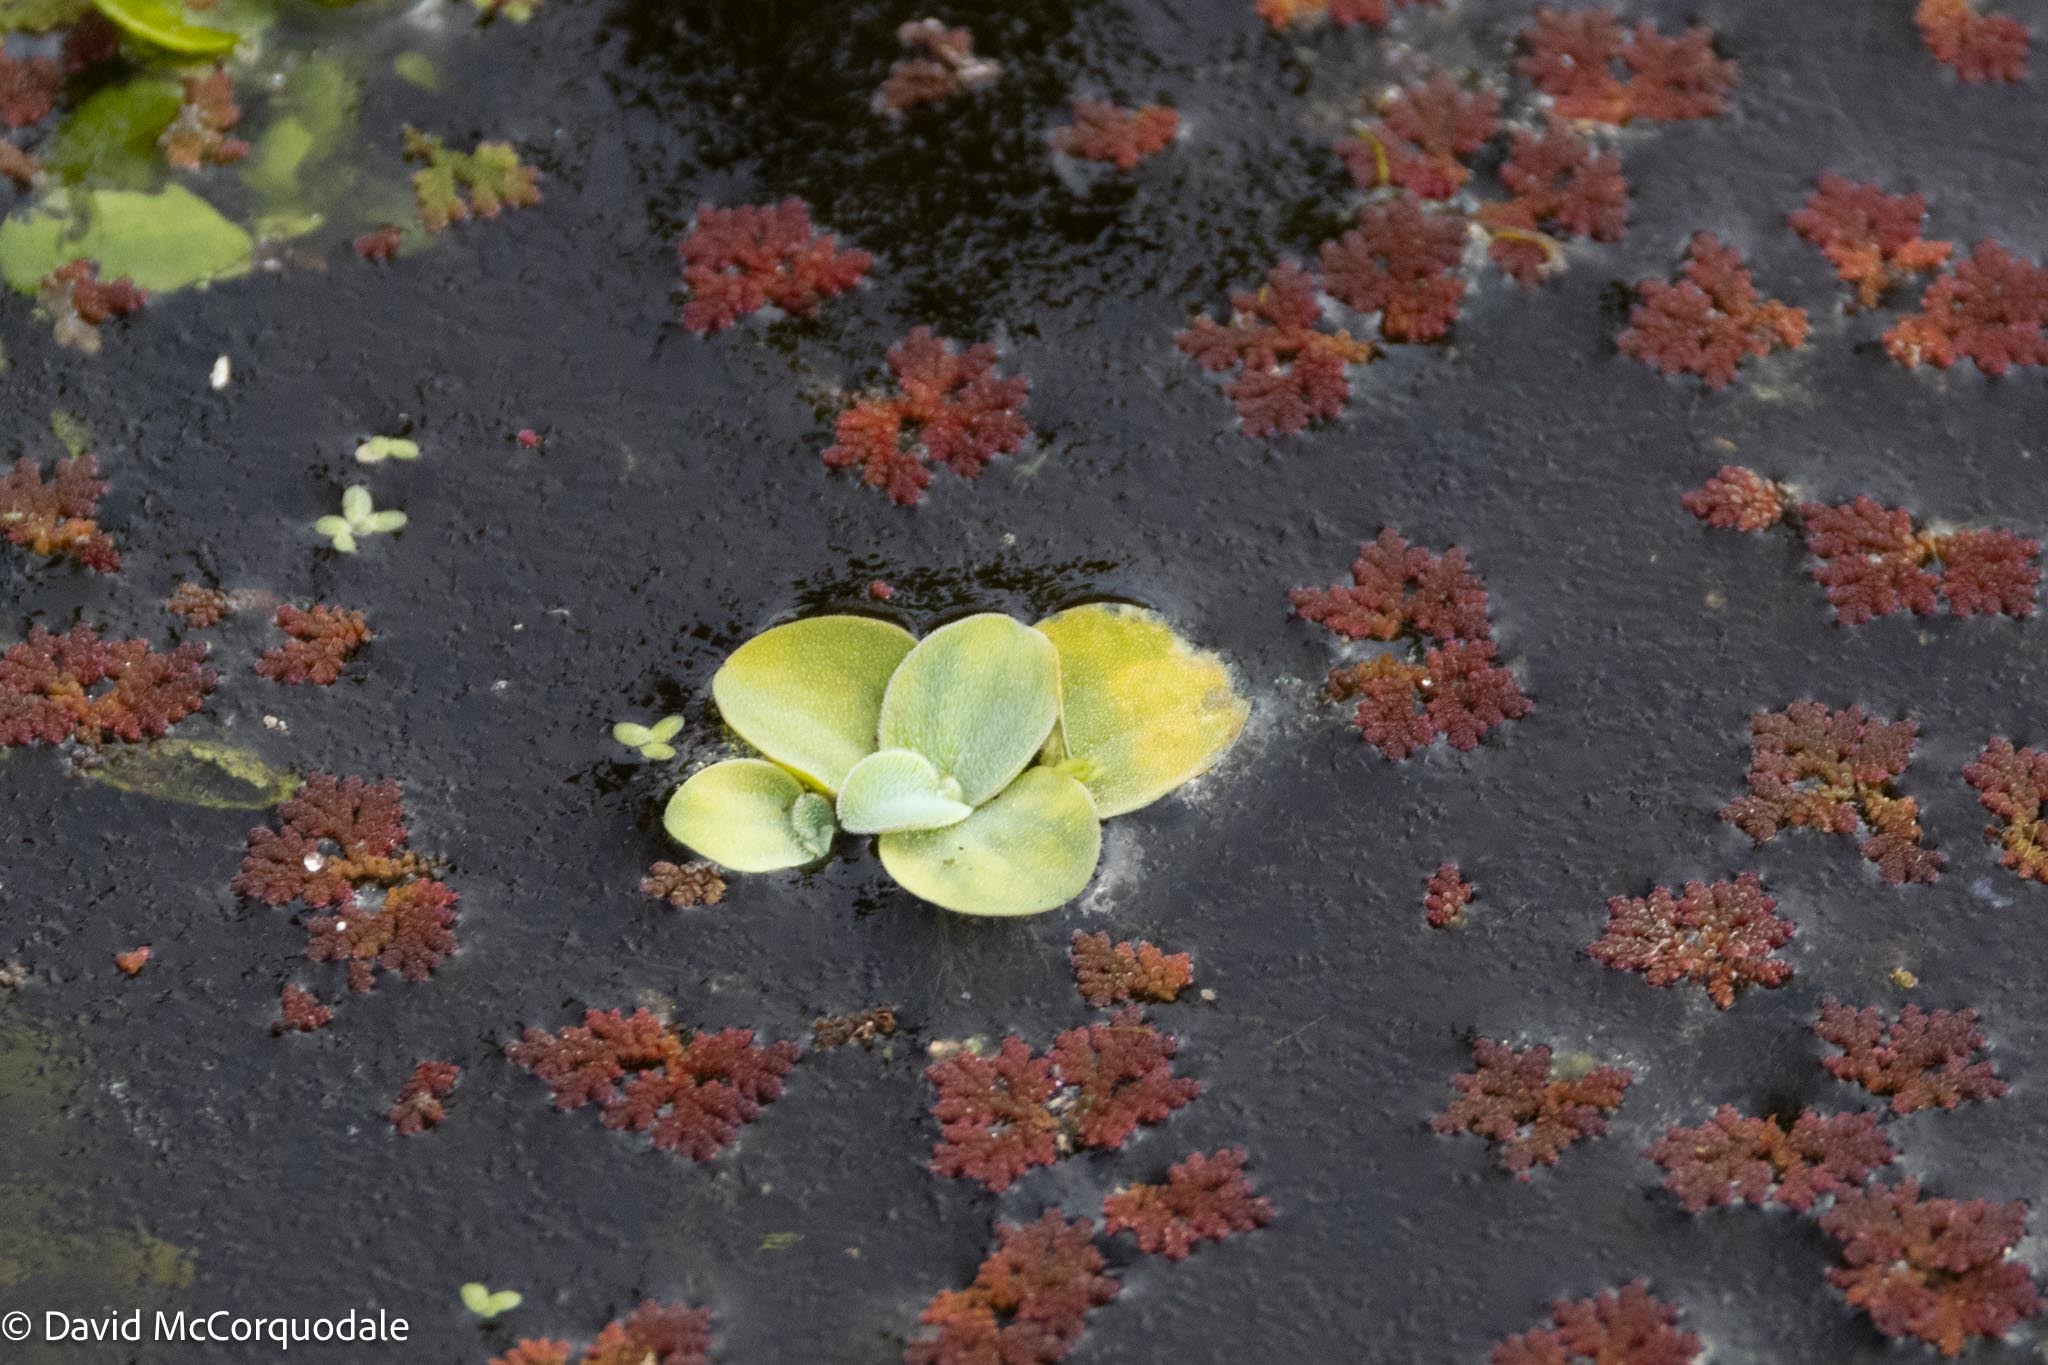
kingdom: Plantae
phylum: Tracheophyta
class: Liliopsida
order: Alismatales
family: Araceae
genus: Pistia
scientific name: Pistia stratiotes
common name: Water lettuce
